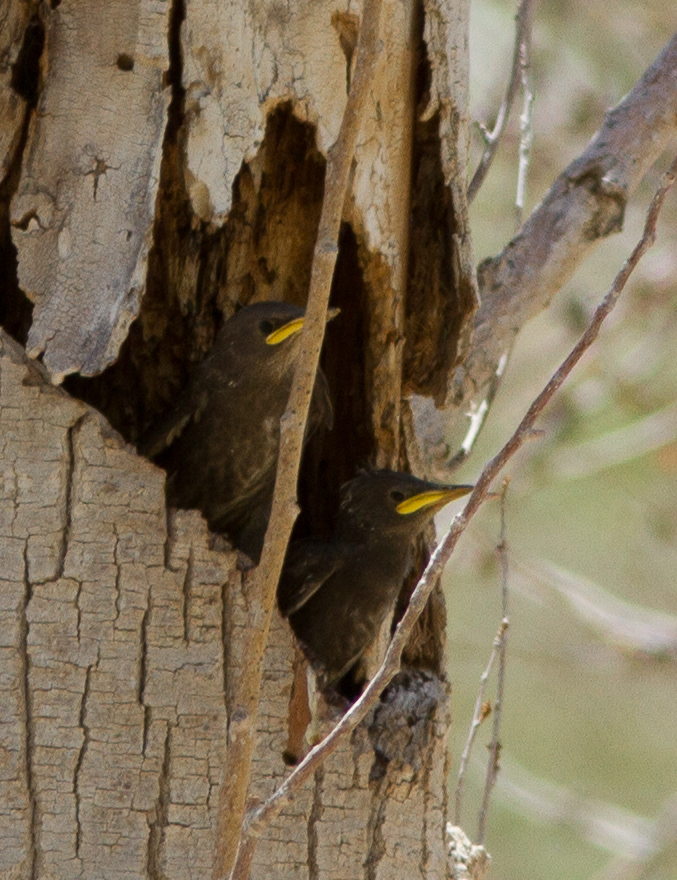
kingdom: Animalia
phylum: Chordata
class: Aves
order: Passeriformes
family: Sturnidae
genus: Sturnus
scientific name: Sturnus vulgaris
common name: Common starling
